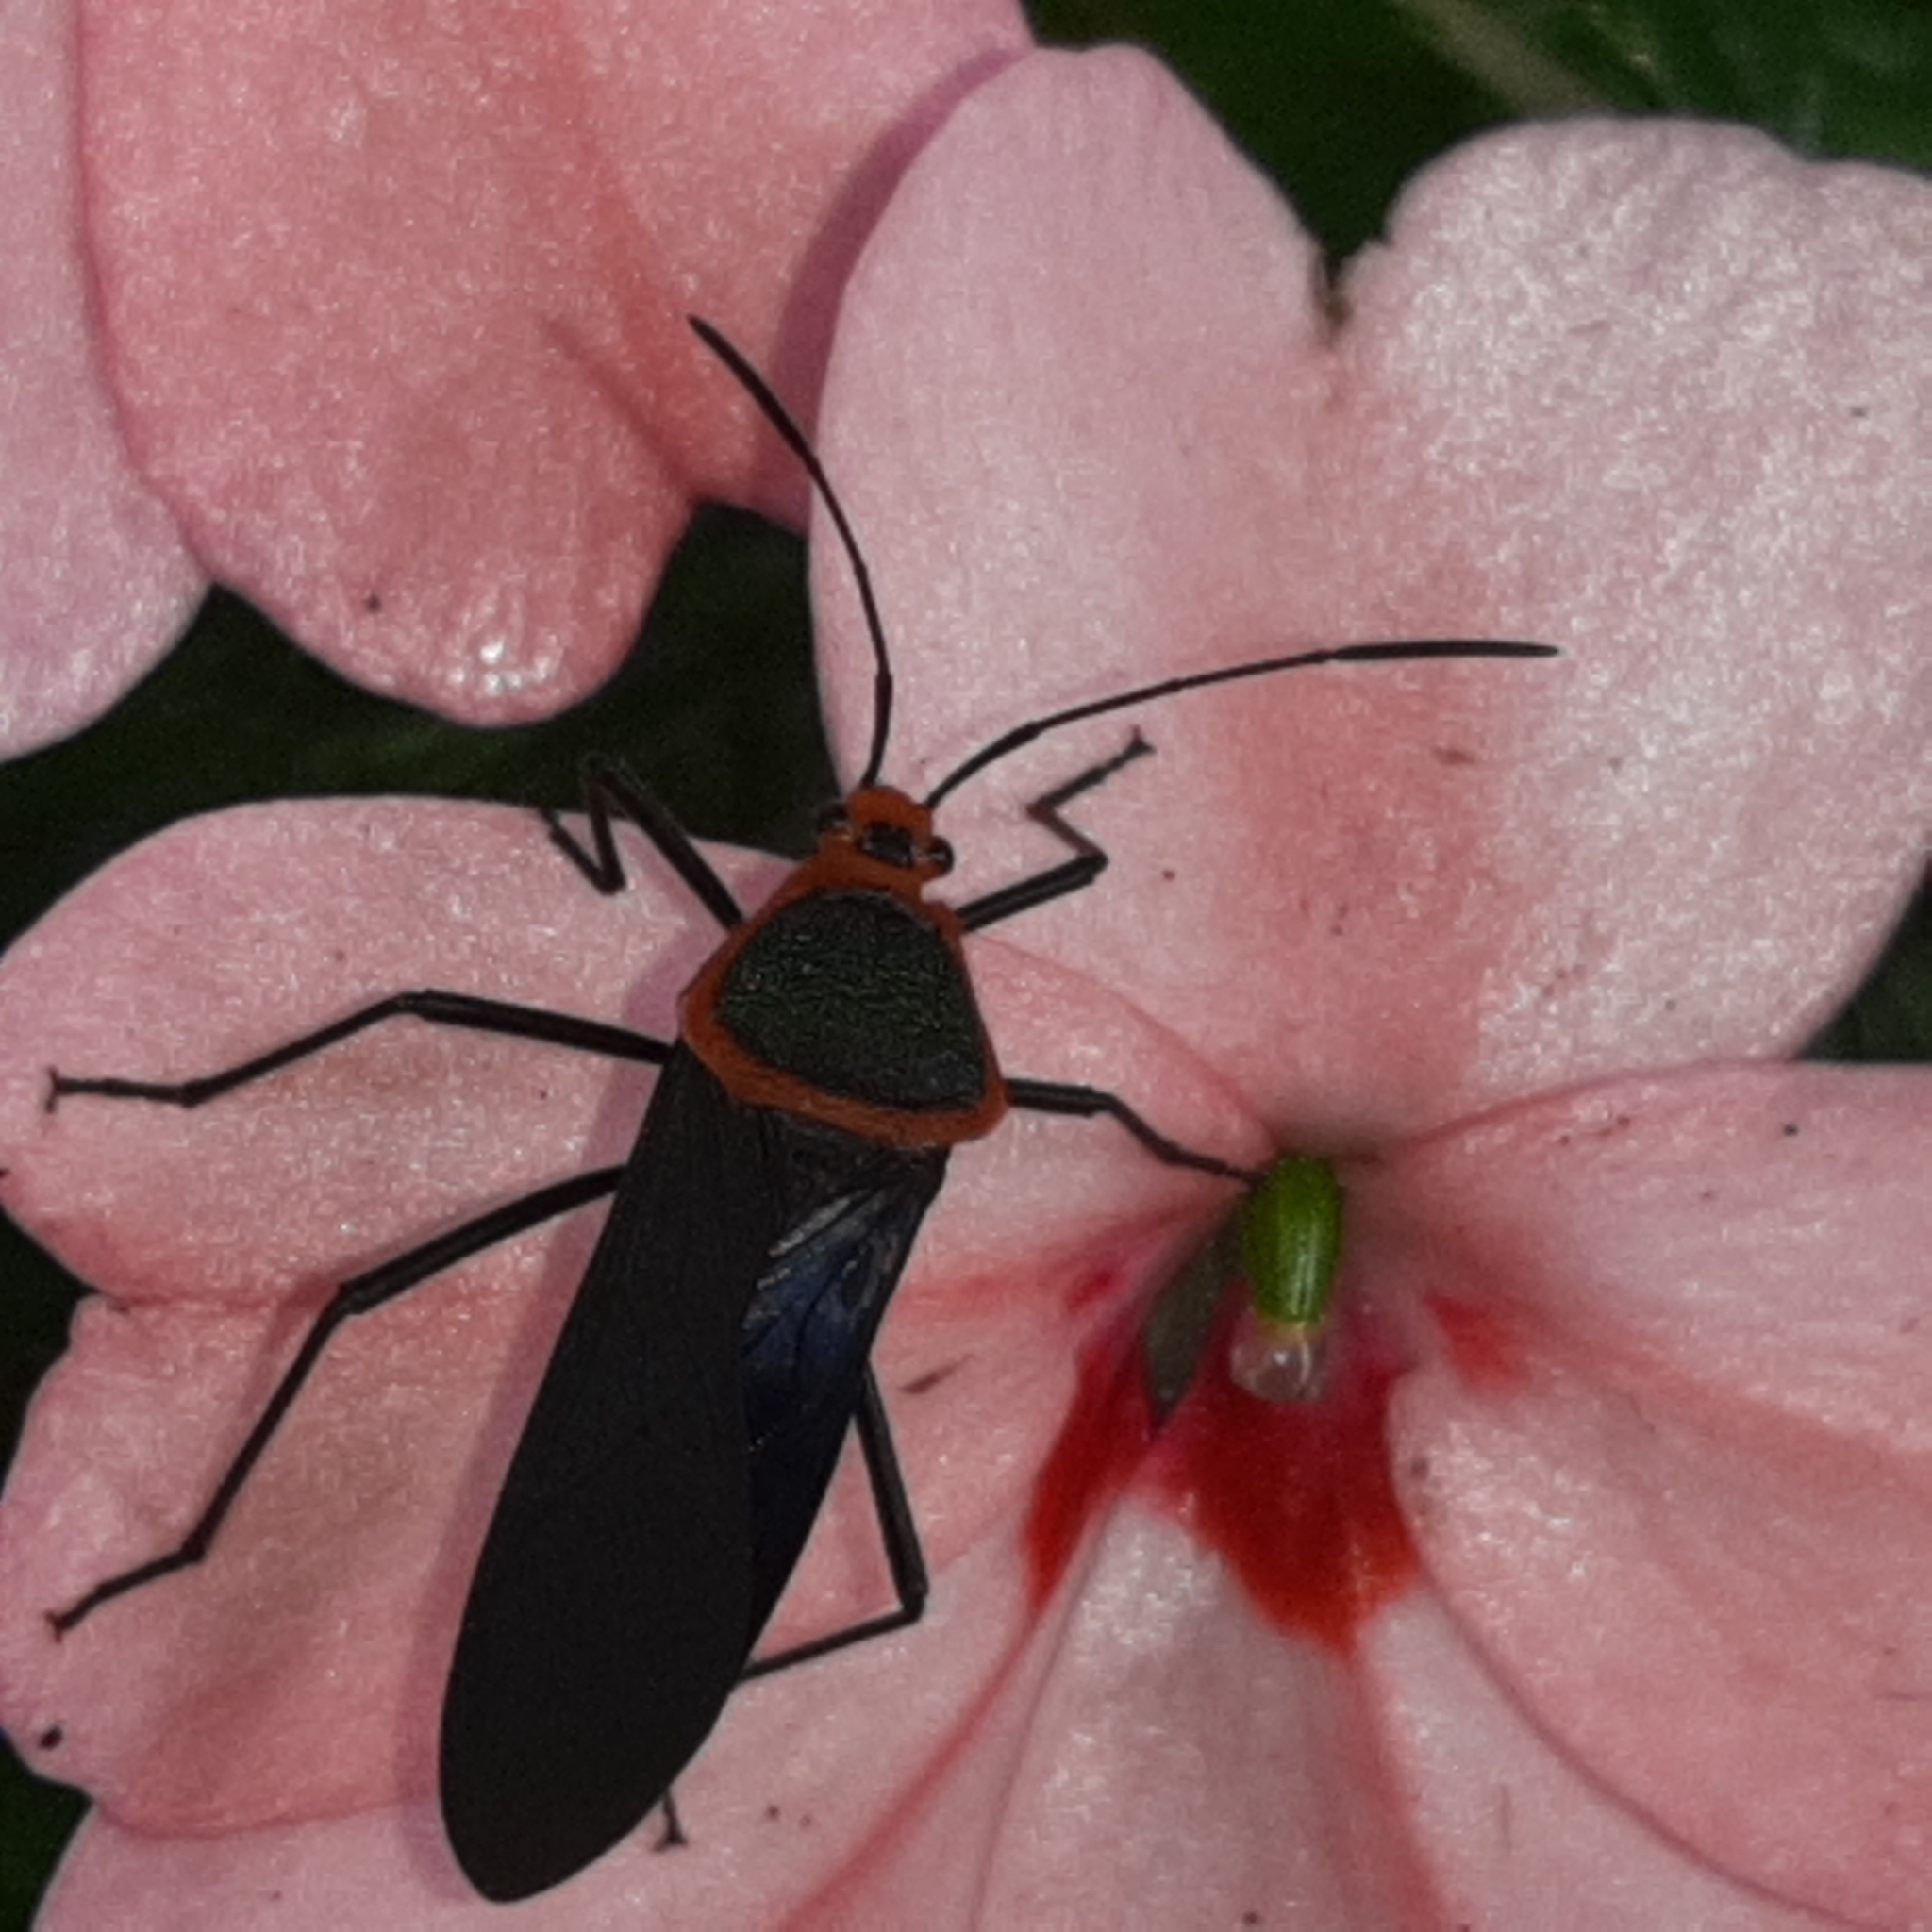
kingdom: Animalia
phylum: Arthropoda
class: Insecta
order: Hemiptera
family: Coreidae
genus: Sphictyrtus
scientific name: Sphictyrtus bugabensis
